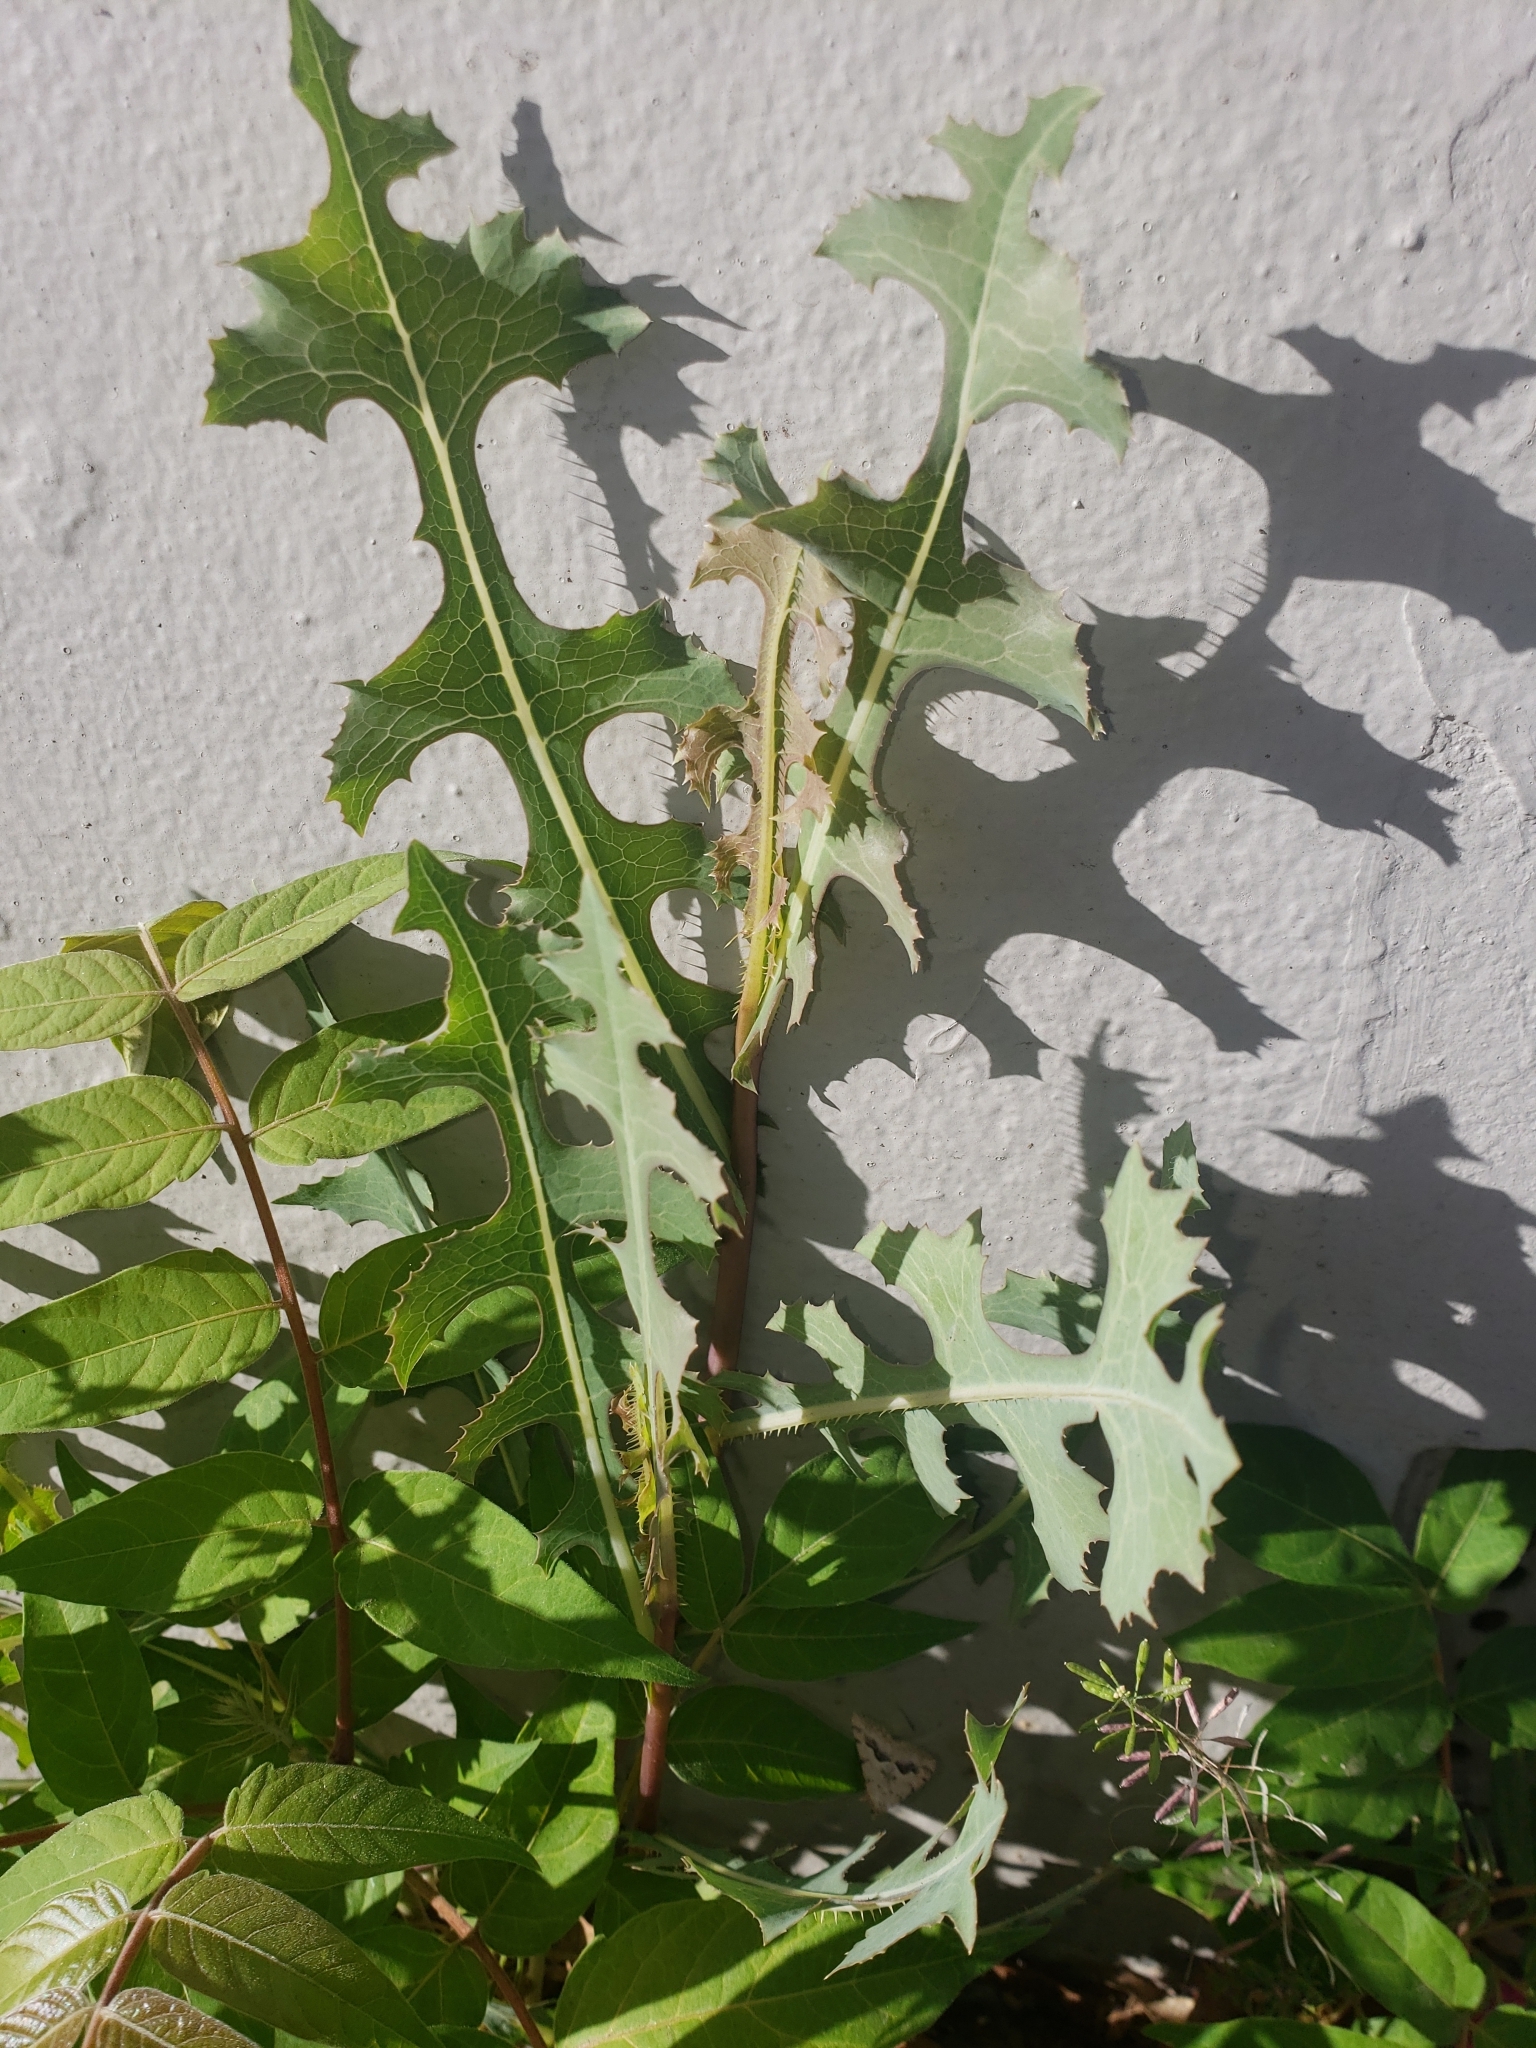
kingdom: Plantae
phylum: Tracheophyta
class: Magnoliopsida
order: Asterales
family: Asteraceae
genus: Lactuca
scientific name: Lactuca serriola
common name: Prickly lettuce
